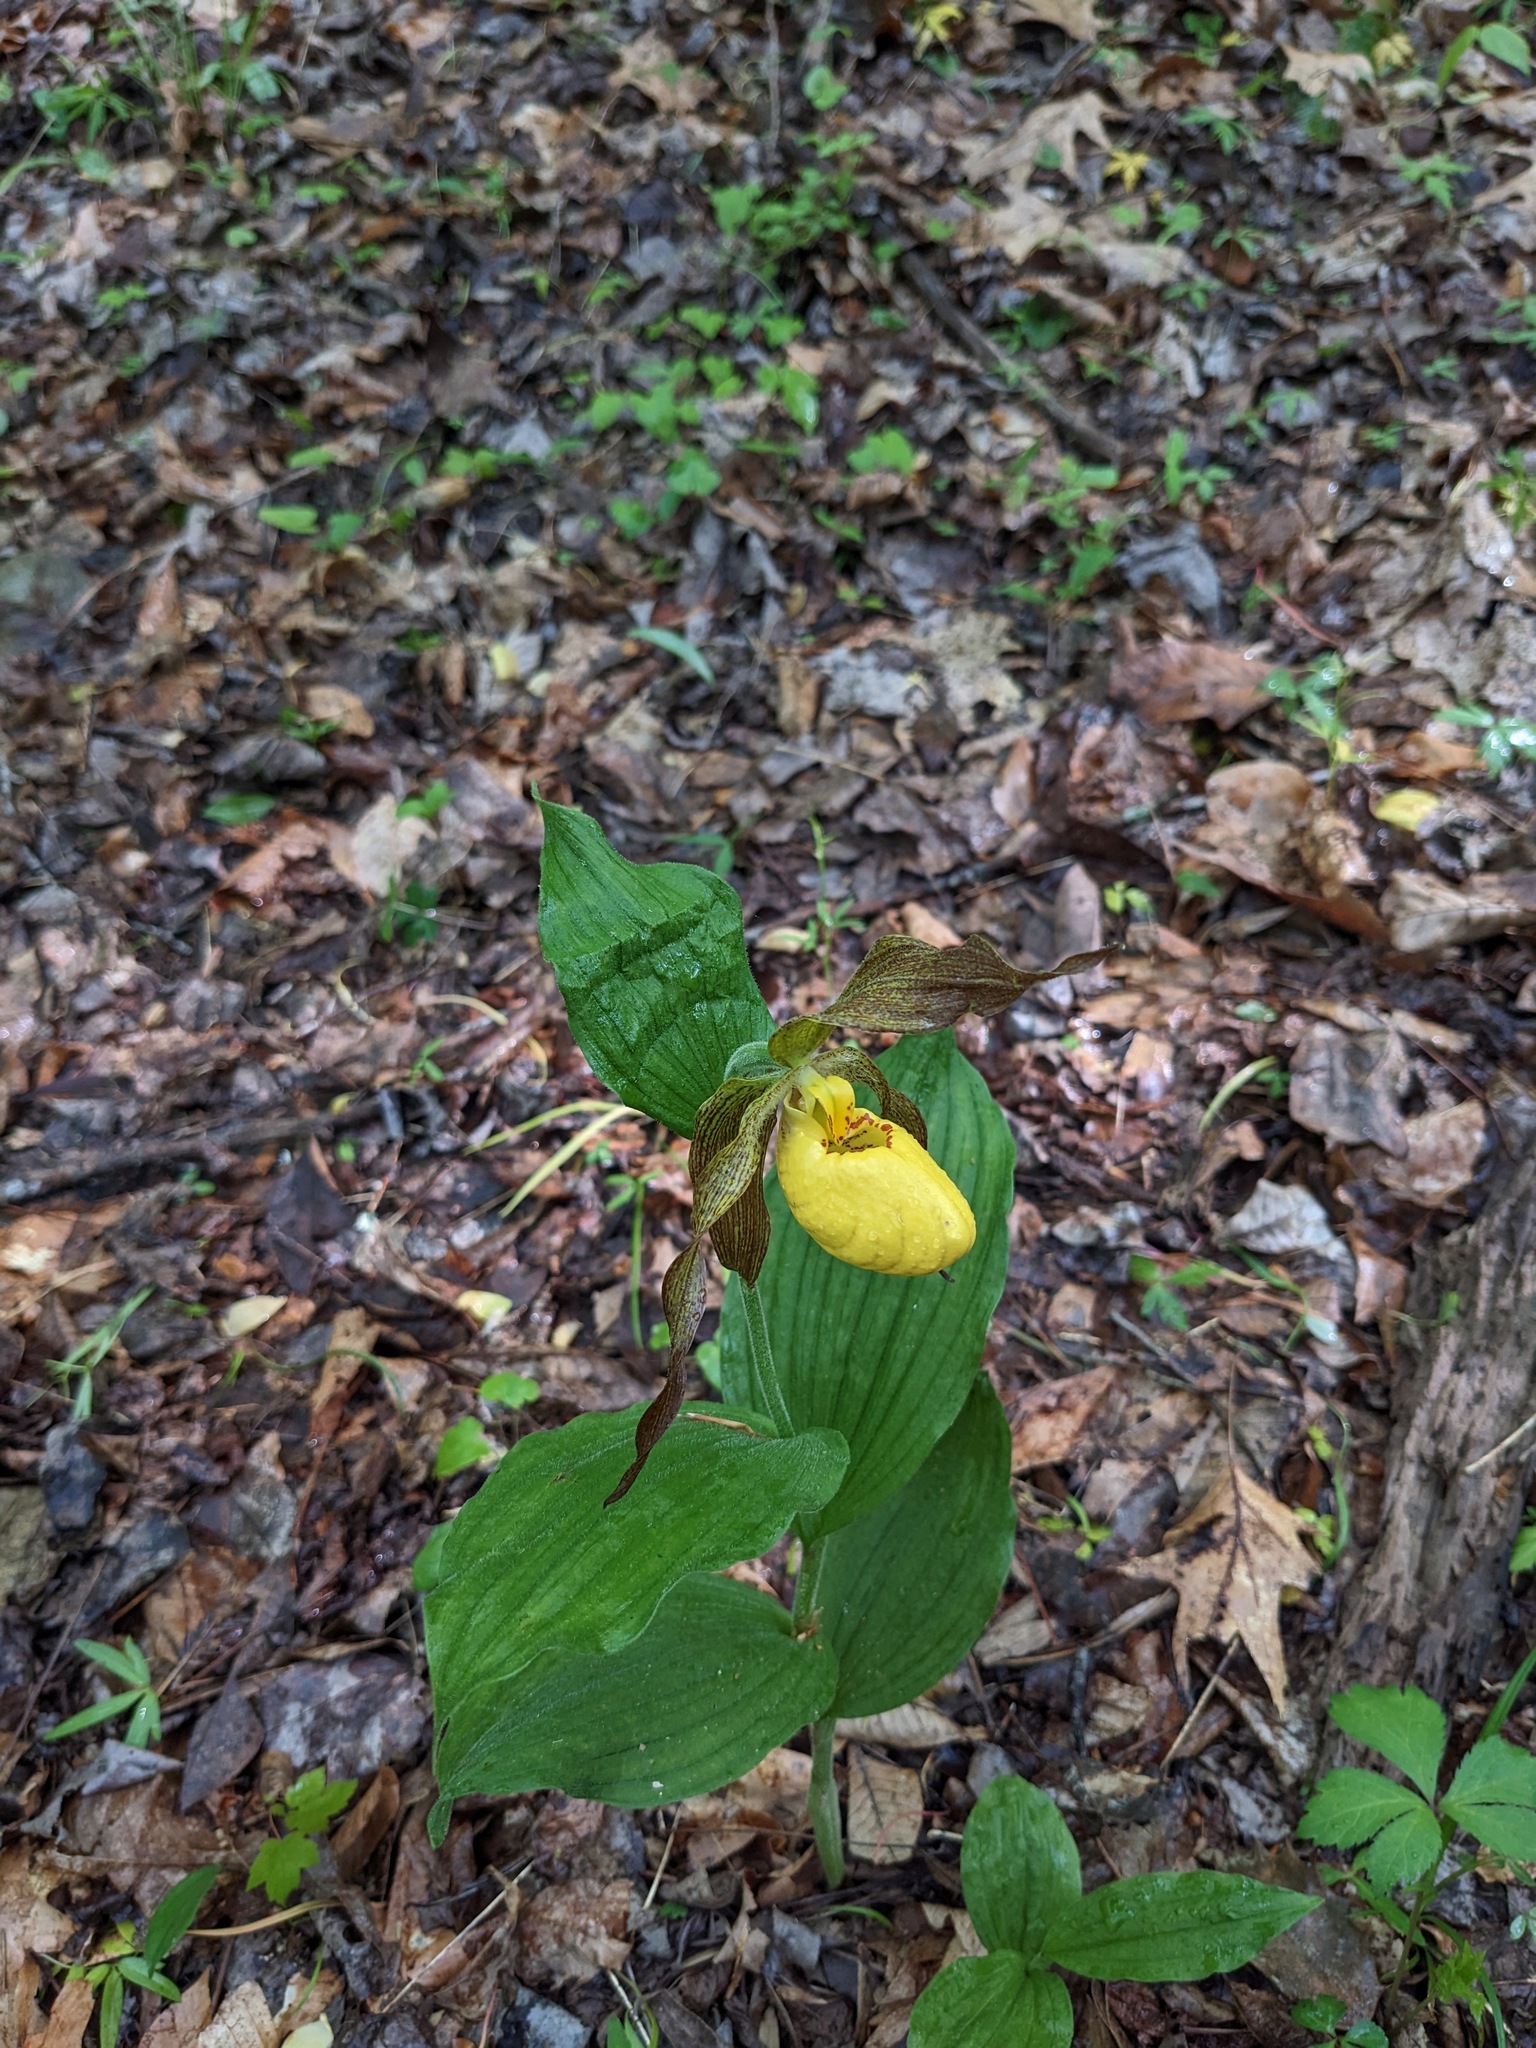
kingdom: Plantae
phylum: Tracheophyta
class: Liliopsida
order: Asparagales
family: Orchidaceae
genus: Cypripedium
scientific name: Cypripedium parviflorum
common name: American yellow lady's-slipper
